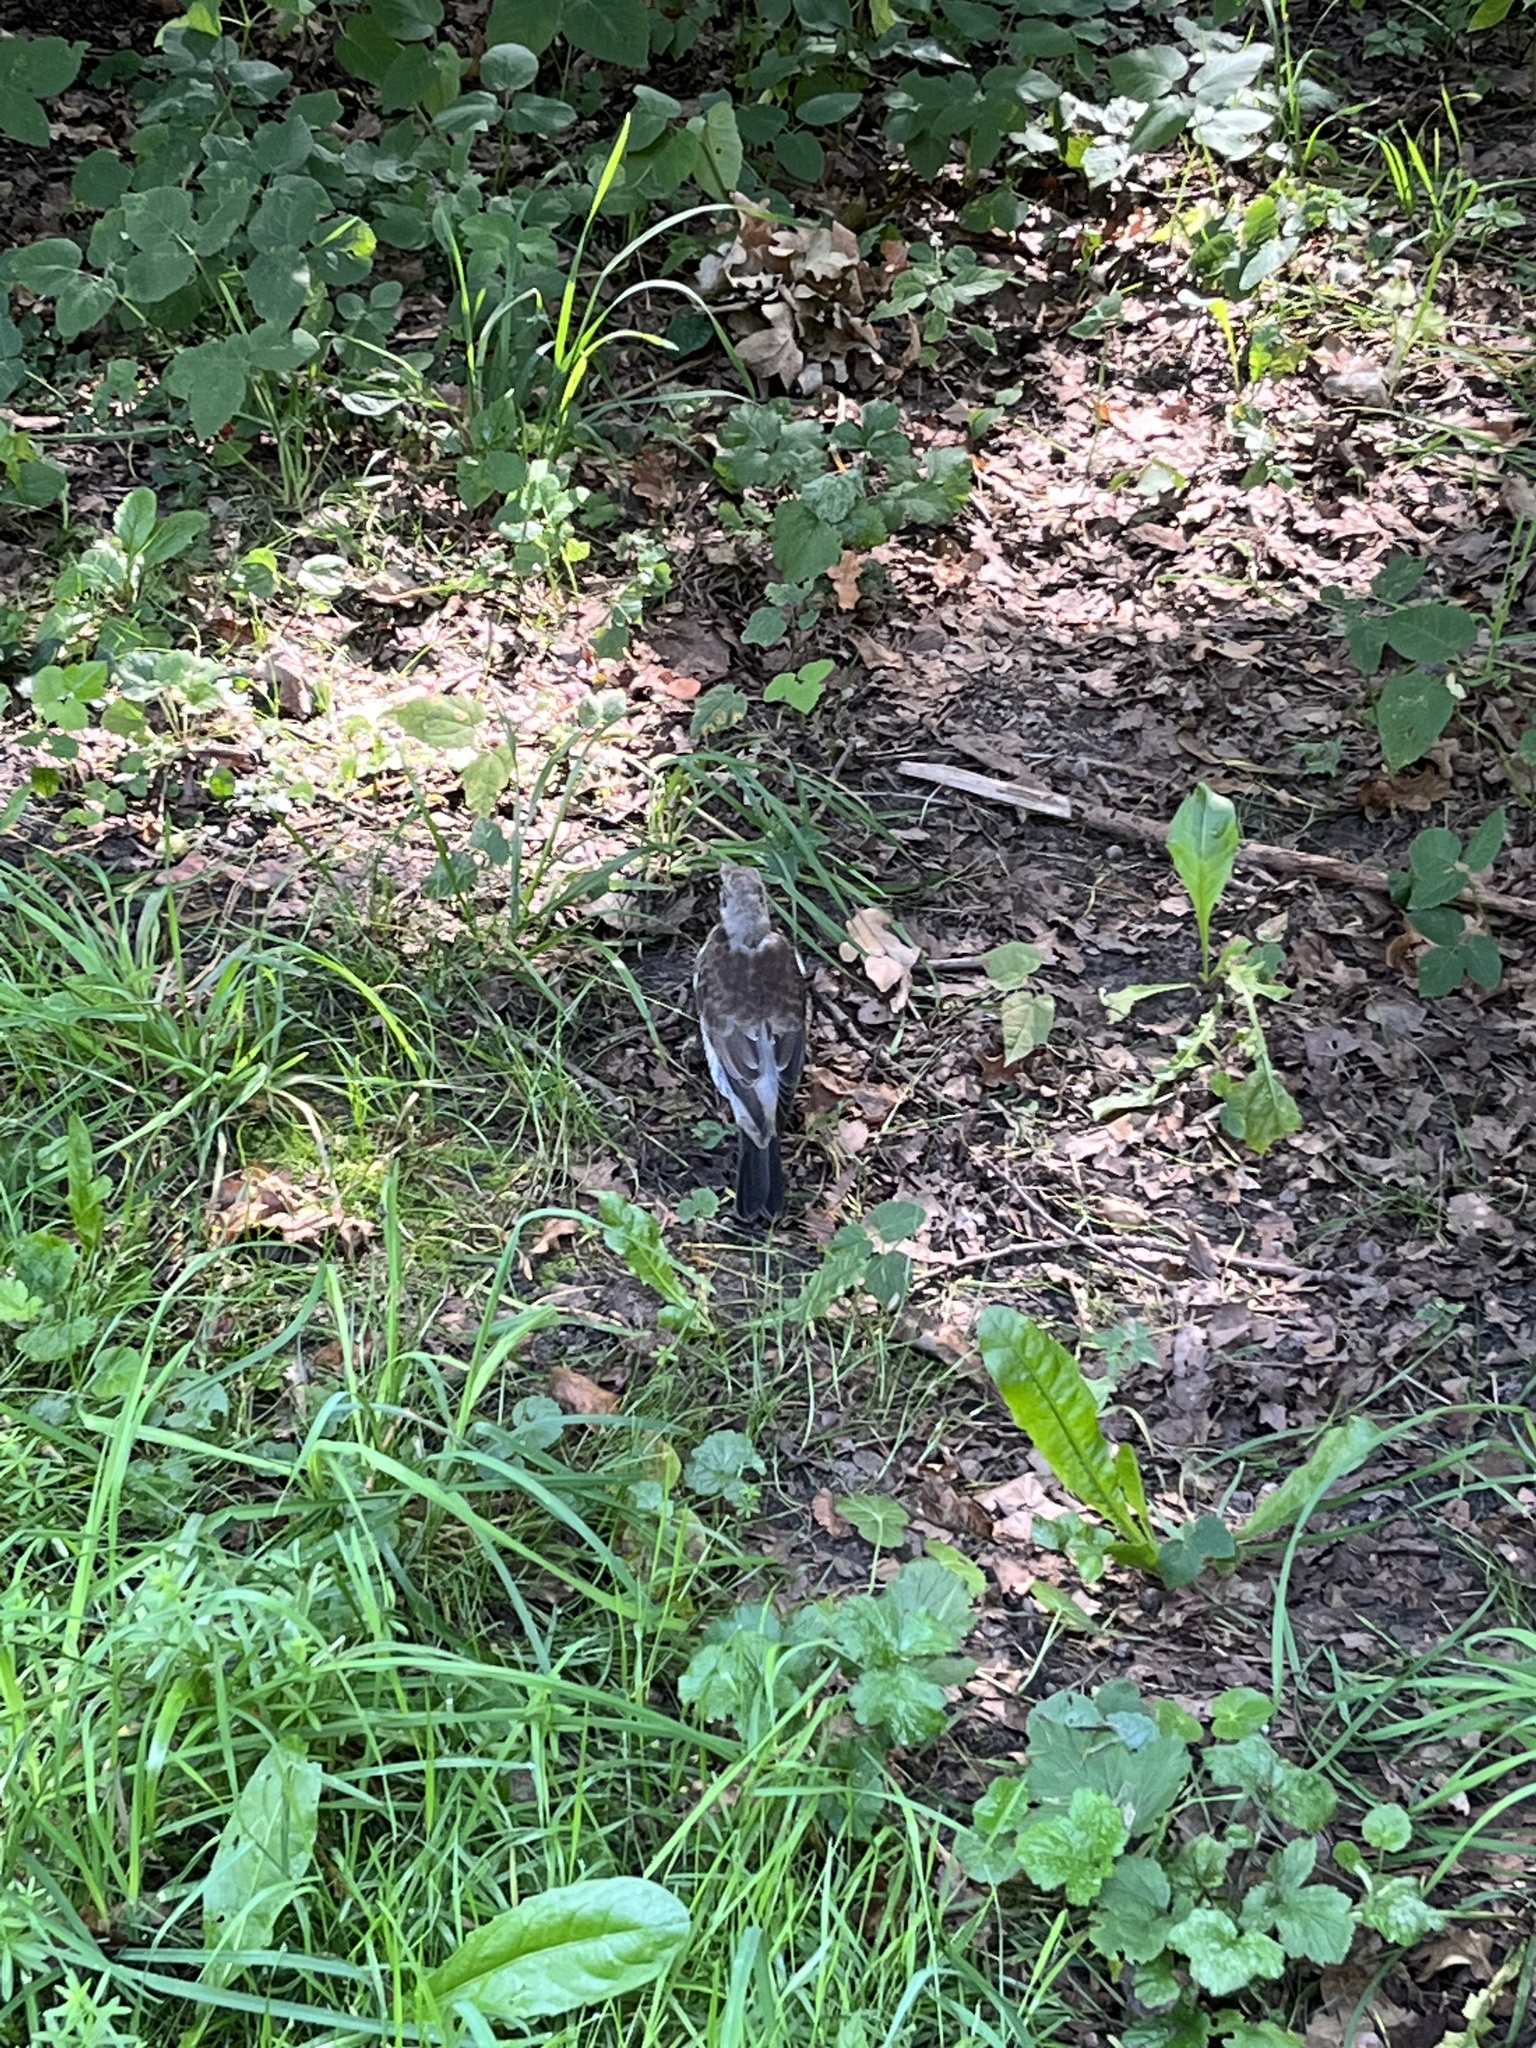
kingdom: Animalia
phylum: Chordata
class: Aves
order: Passeriformes
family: Turdidae
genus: Turdus
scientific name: Turdus pilaris
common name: Fieldfare
